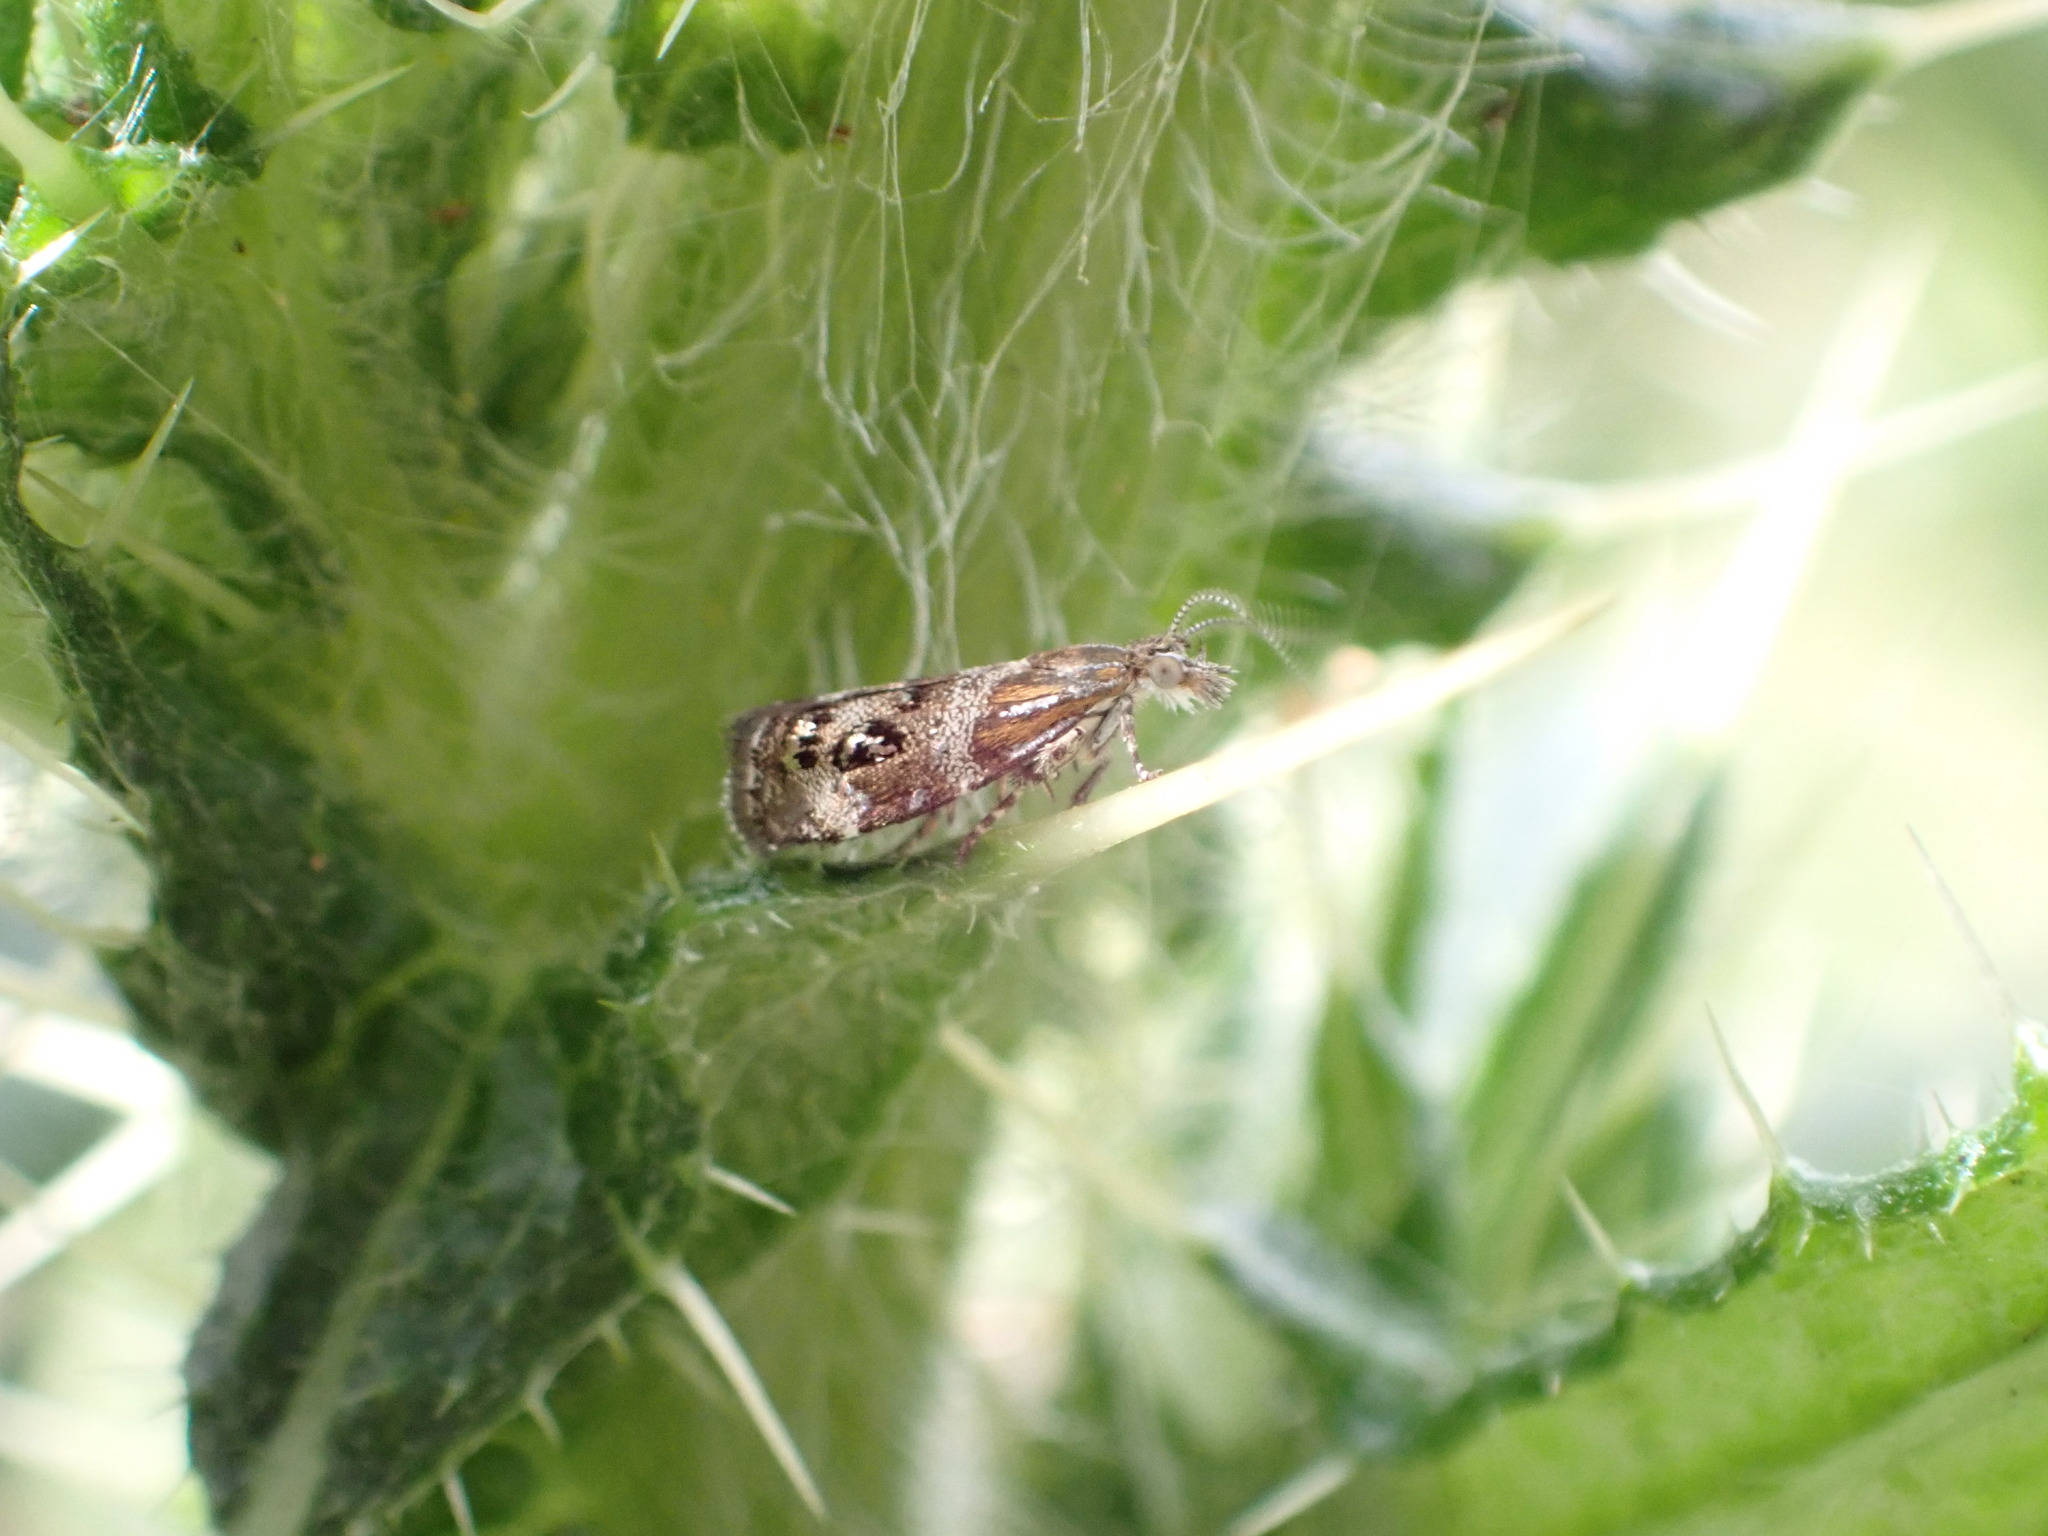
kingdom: Animalia
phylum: Arthropoda
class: Insecta
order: Lepidoptera
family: Choreutidae
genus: Tebenna
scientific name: Tebenna micalis
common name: Vagrant twitcher
